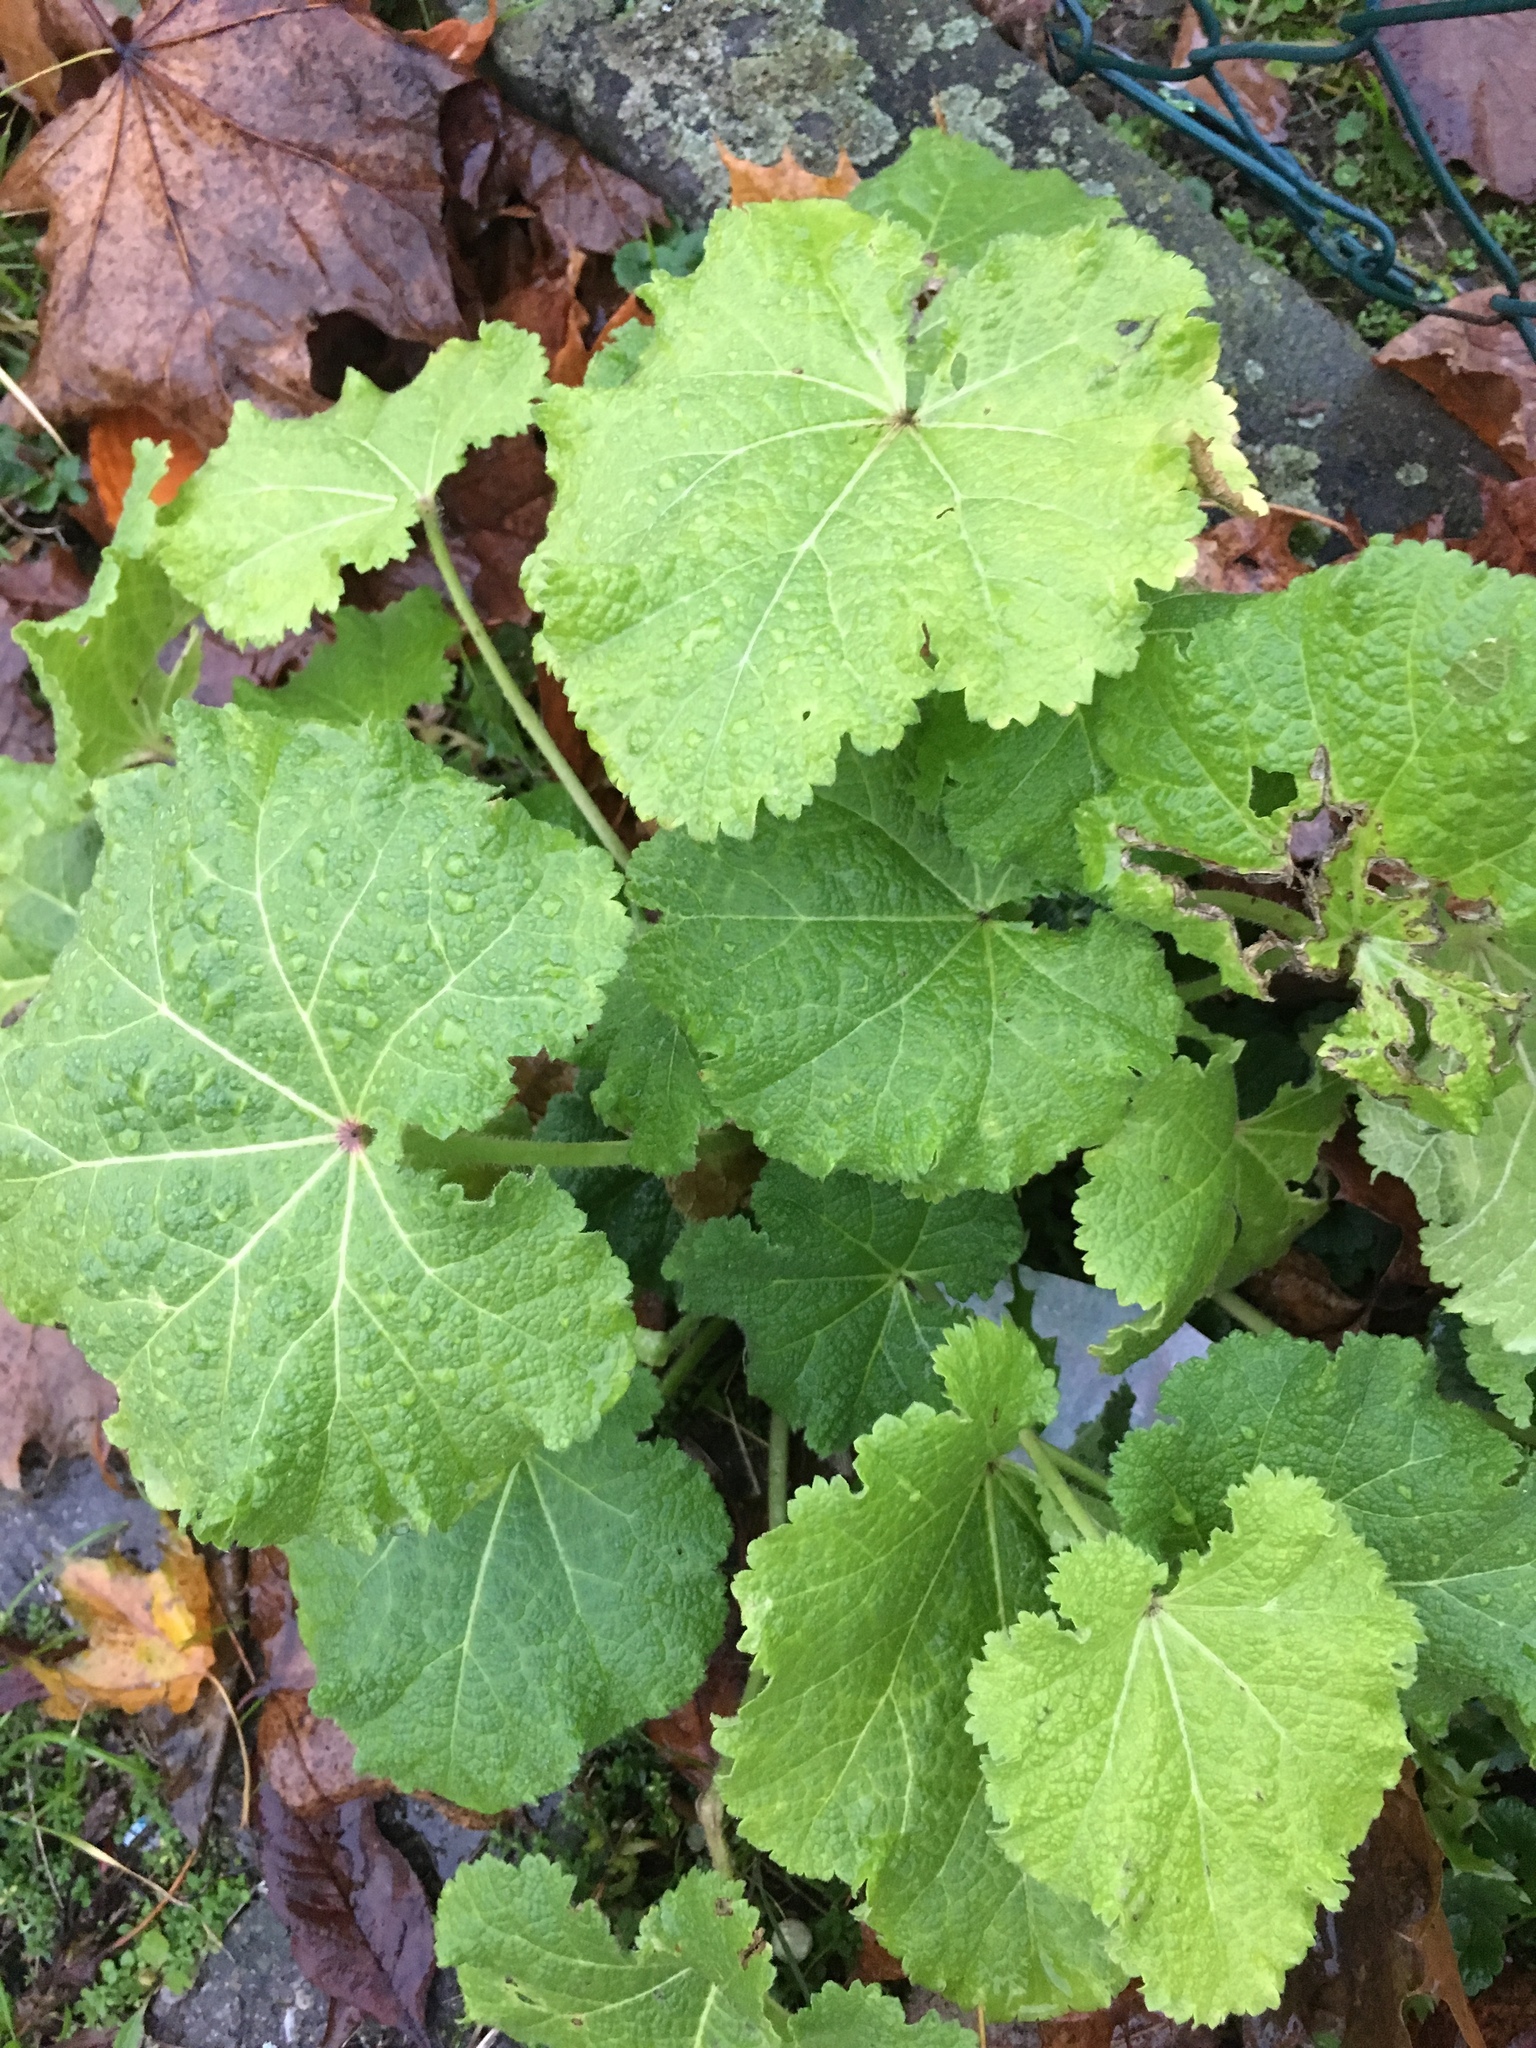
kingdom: Plantae
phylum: Tracheophyta
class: Magnoliopsida
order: Malvales
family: Malvaceae
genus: Alcea
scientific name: Alcea rosea
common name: Hollyhock
